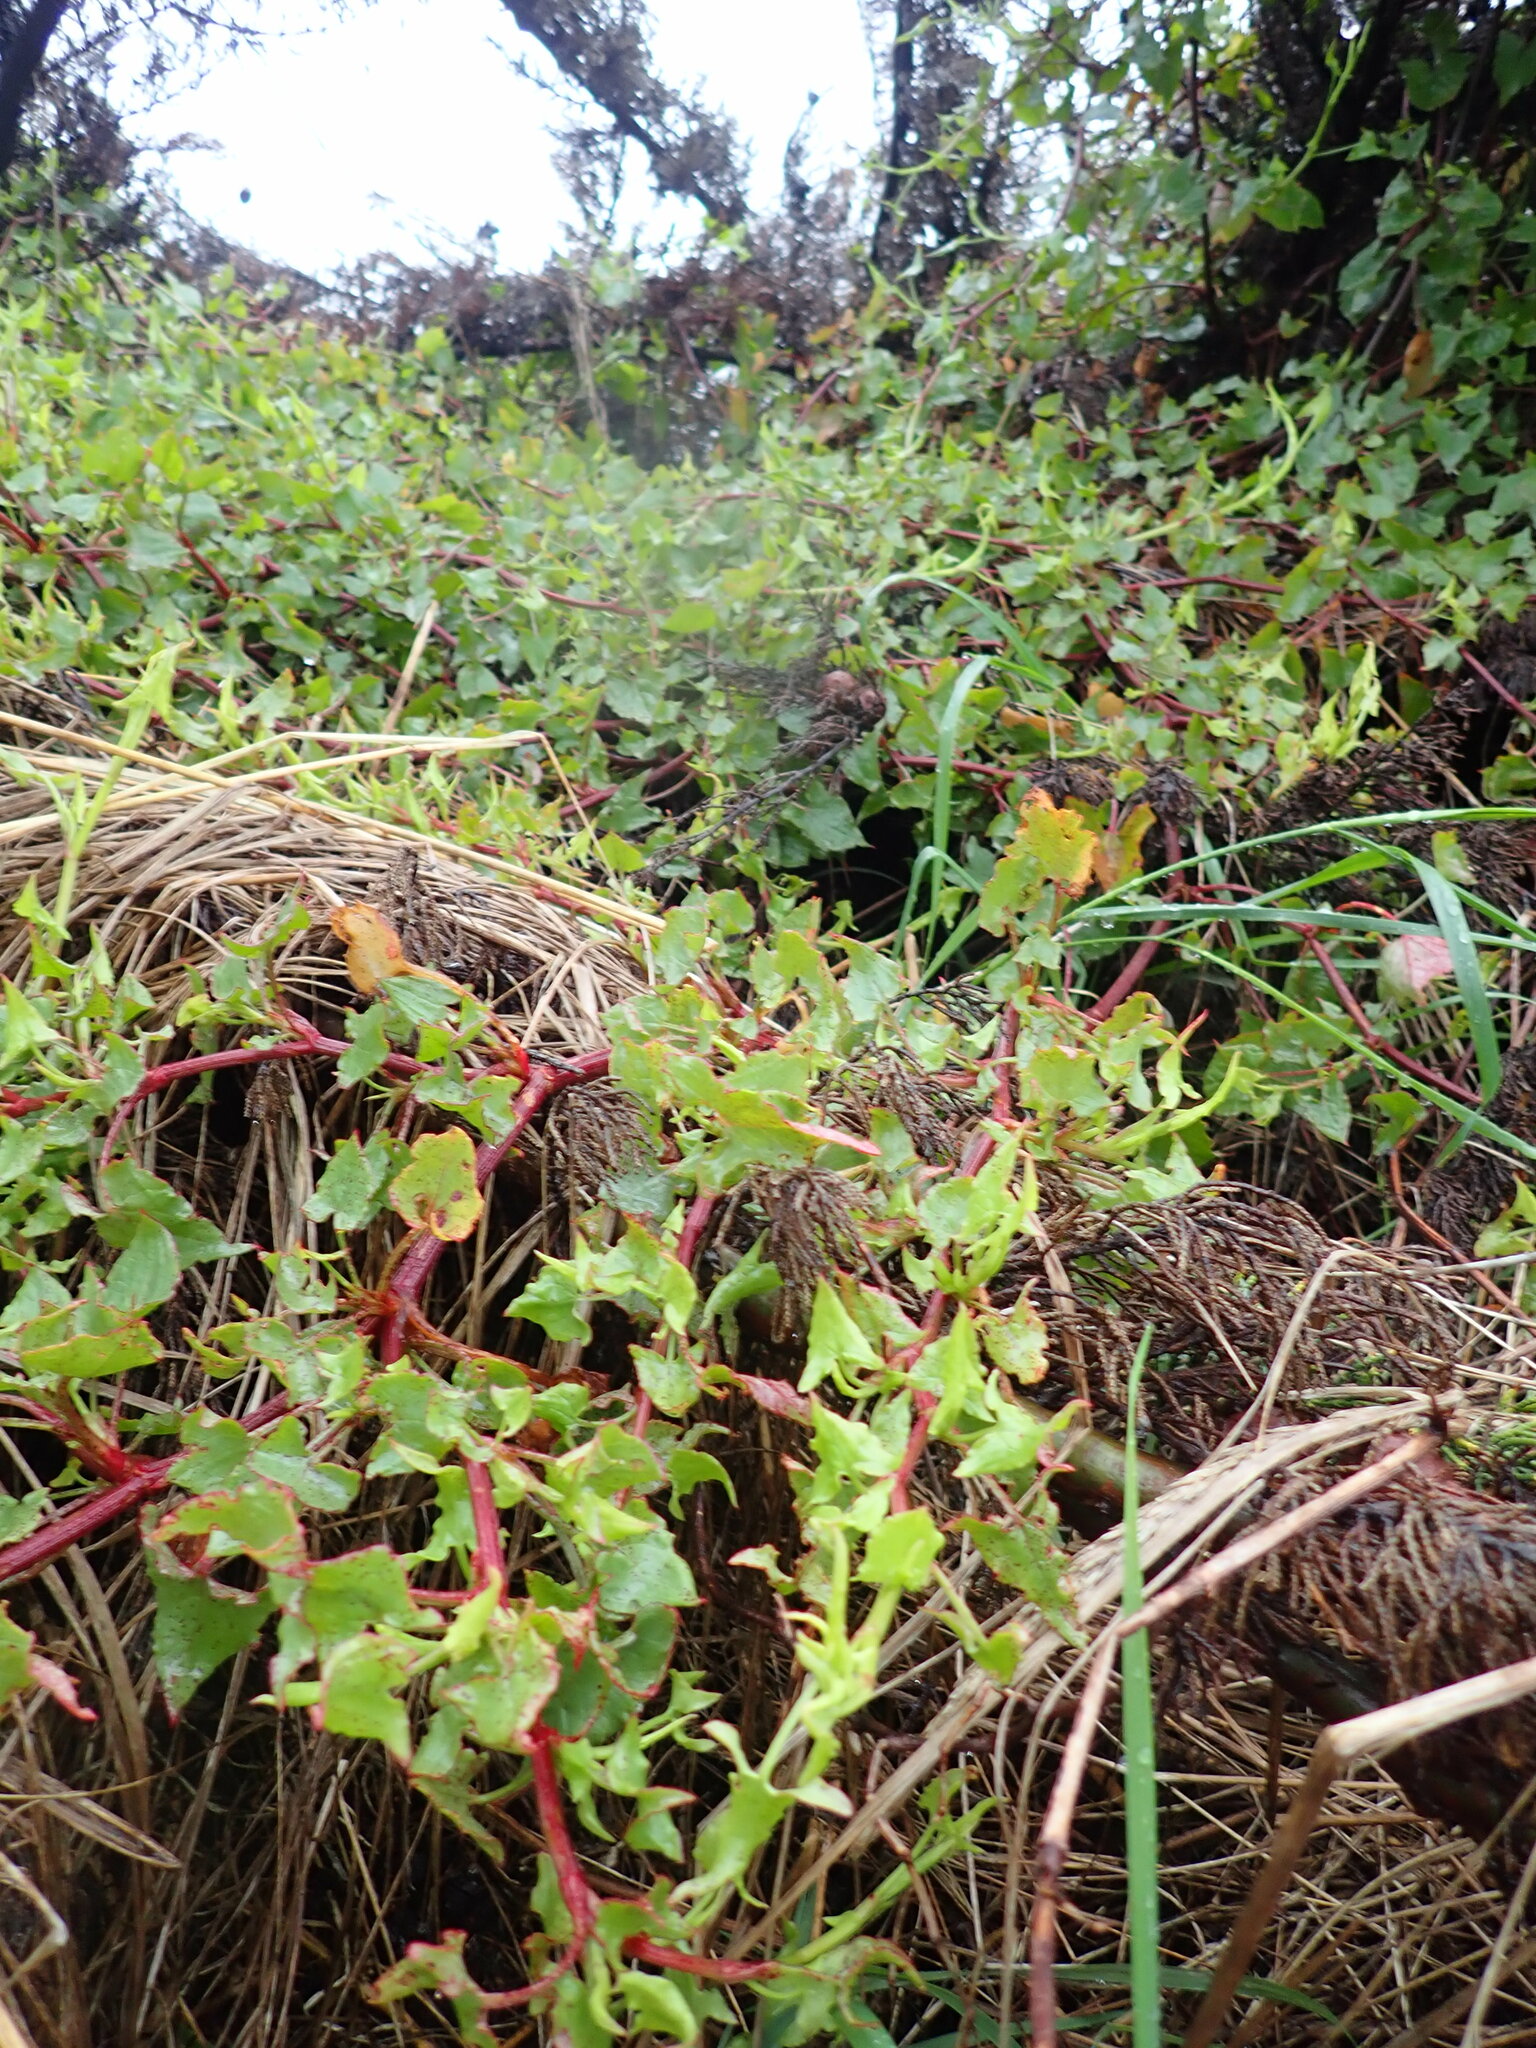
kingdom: Plantae
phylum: Tracheophyta
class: Magnoliopsida
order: Caryophyllales
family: Polygonaceae
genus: Rumex
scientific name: Rumex sagittatus
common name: Climbing dock
